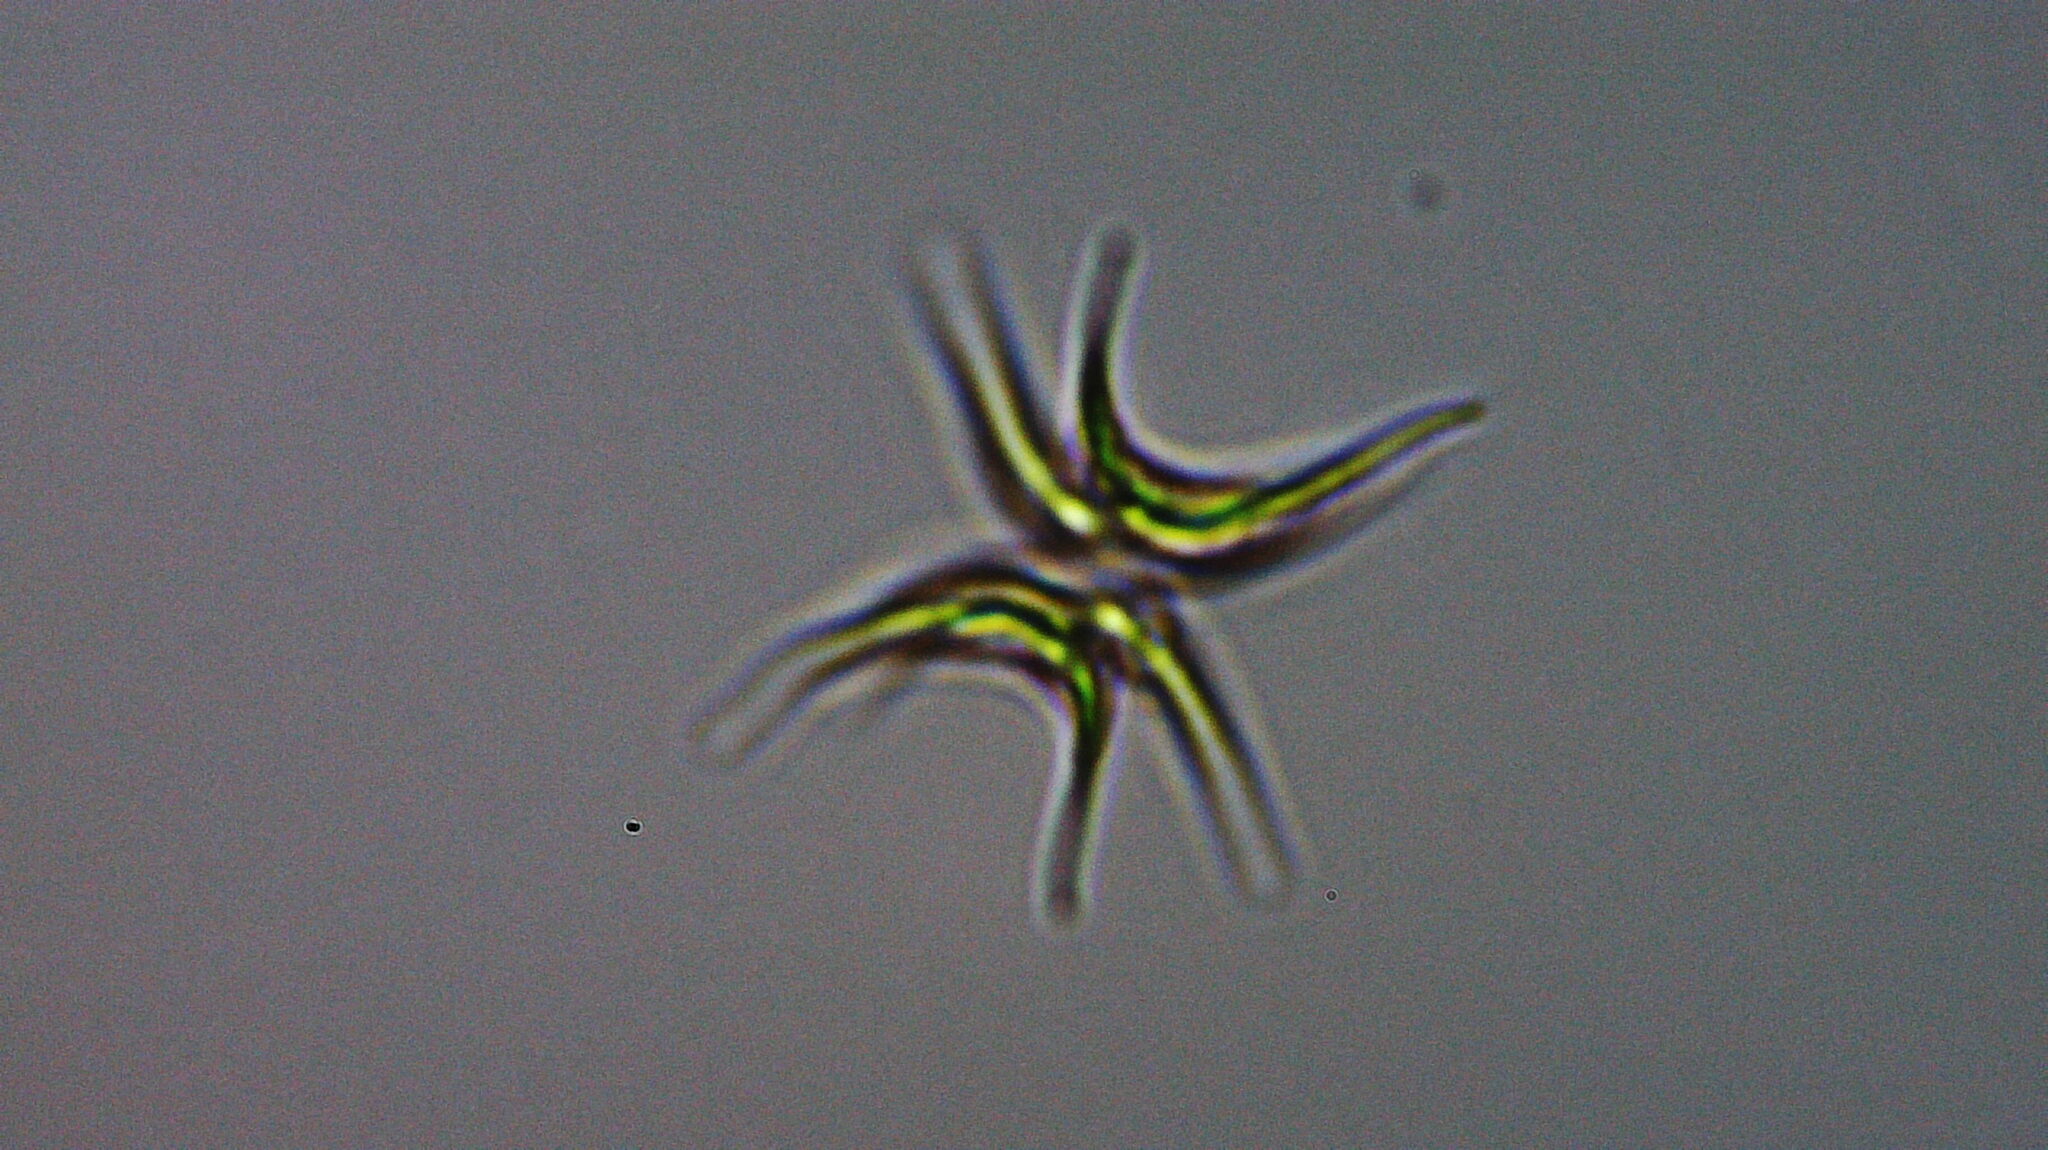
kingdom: Plantae
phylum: Chlorophyta
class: Chlorophyceae
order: Sphaeropleales
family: Scenedesmaceae
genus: Tetradesmus
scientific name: Tetradesmus lagerheimii
